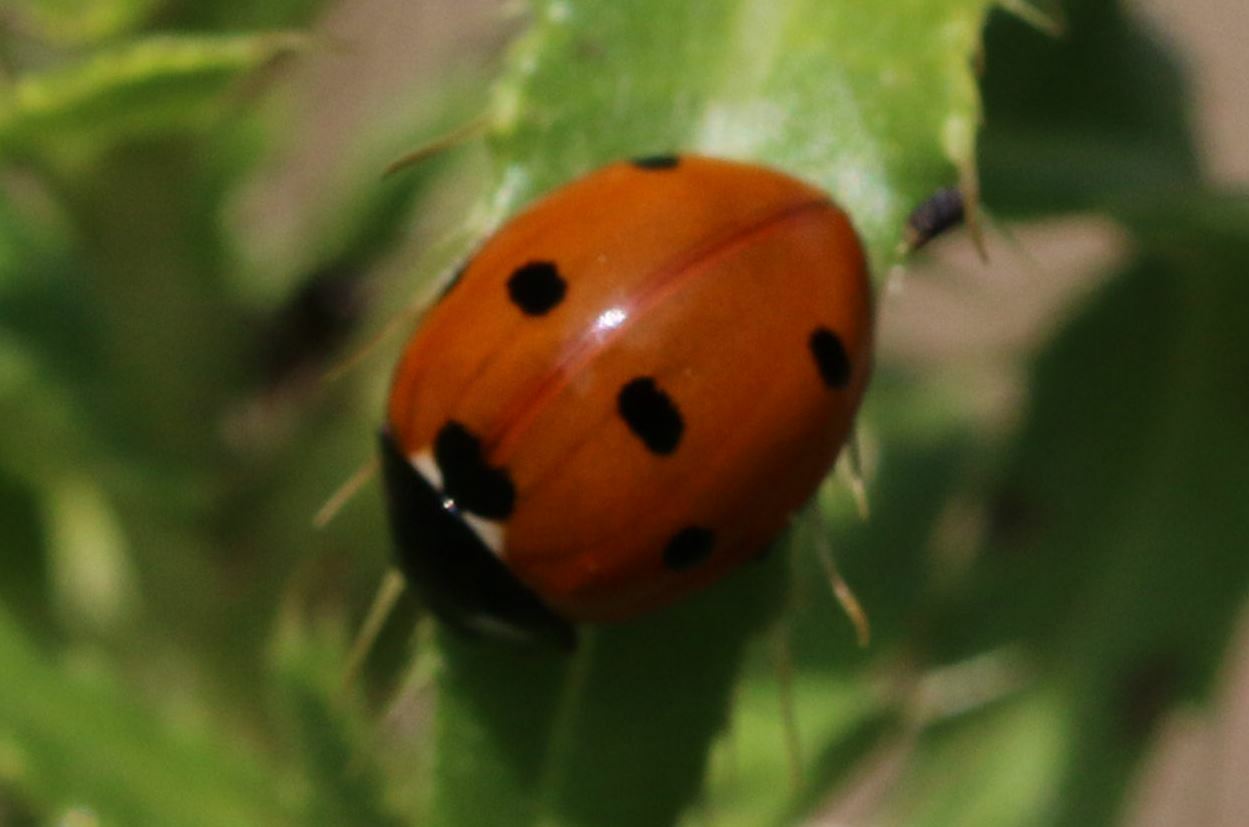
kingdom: Animalia
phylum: Arthropoda
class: Insecta
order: Coleoptera
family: Coccinellidae
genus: Coccinella
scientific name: Coccinella septempunctata
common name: Sevenspotted lady beetle
